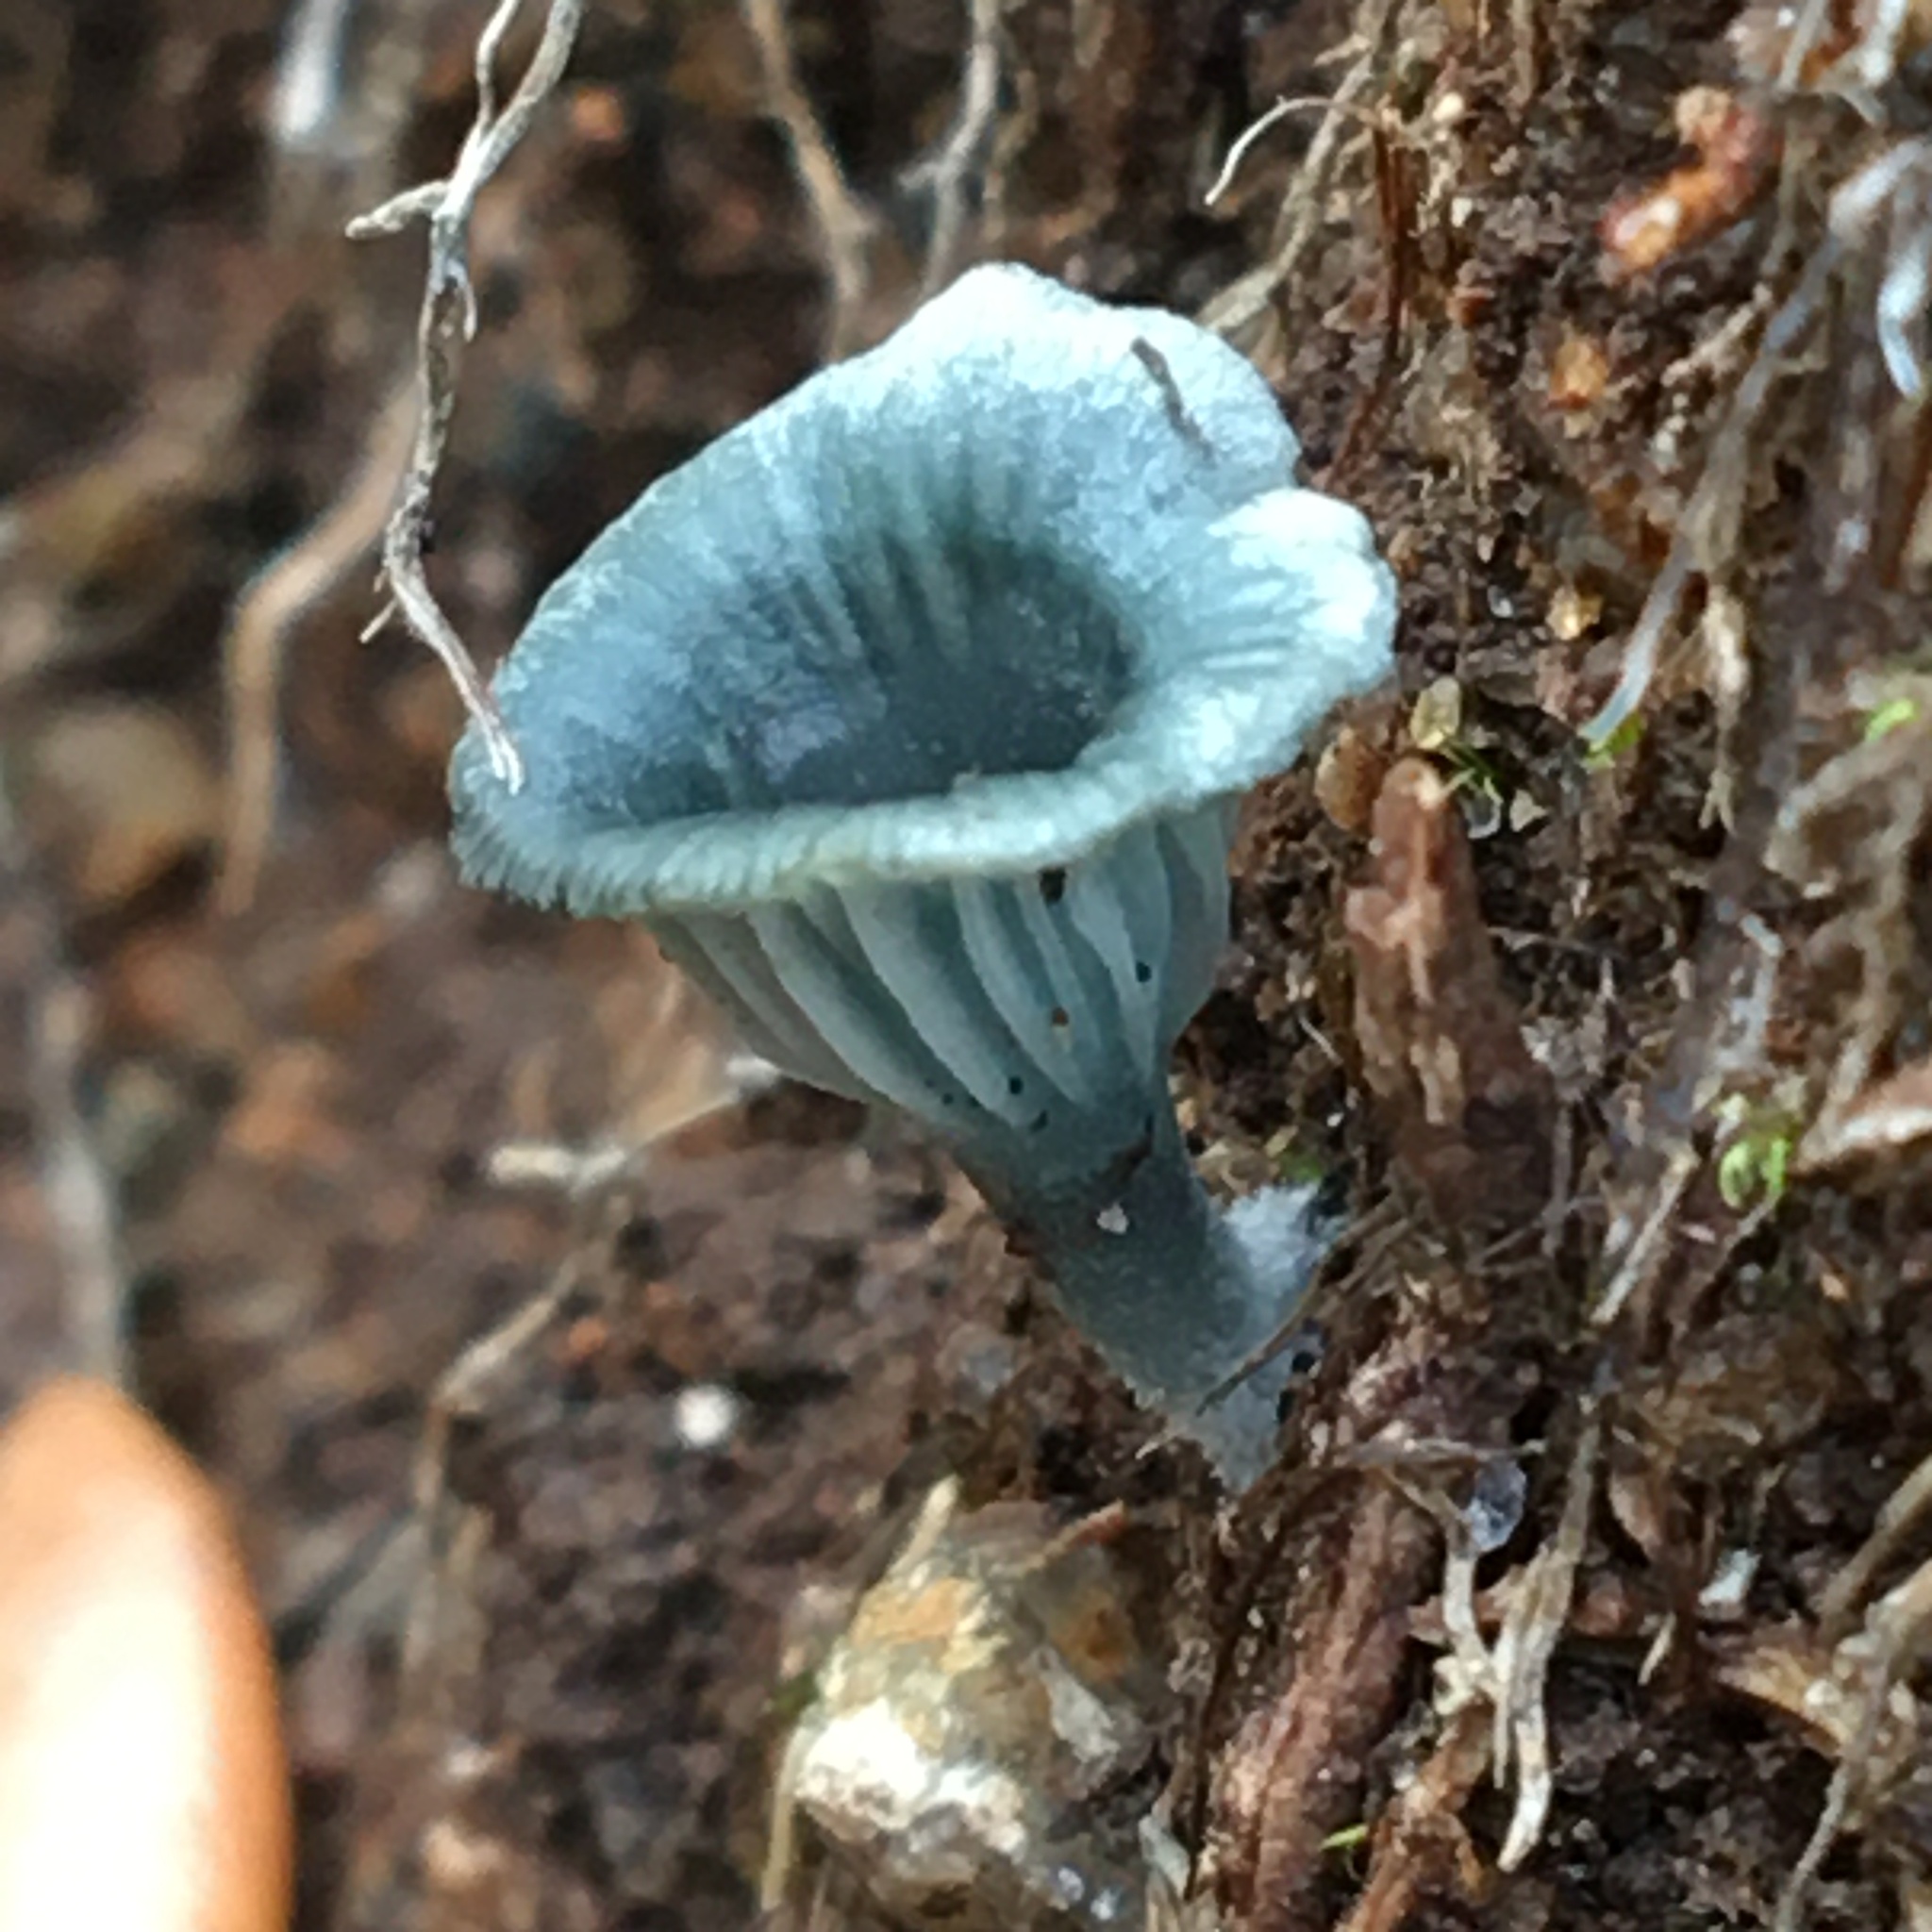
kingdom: Fungi
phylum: Basidiomycota
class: Agaricomycetes
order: Agaricales
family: Hygrophoraceae
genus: Arrhenia
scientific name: Arrhenia chlorocyanea
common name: Verdigris navel
